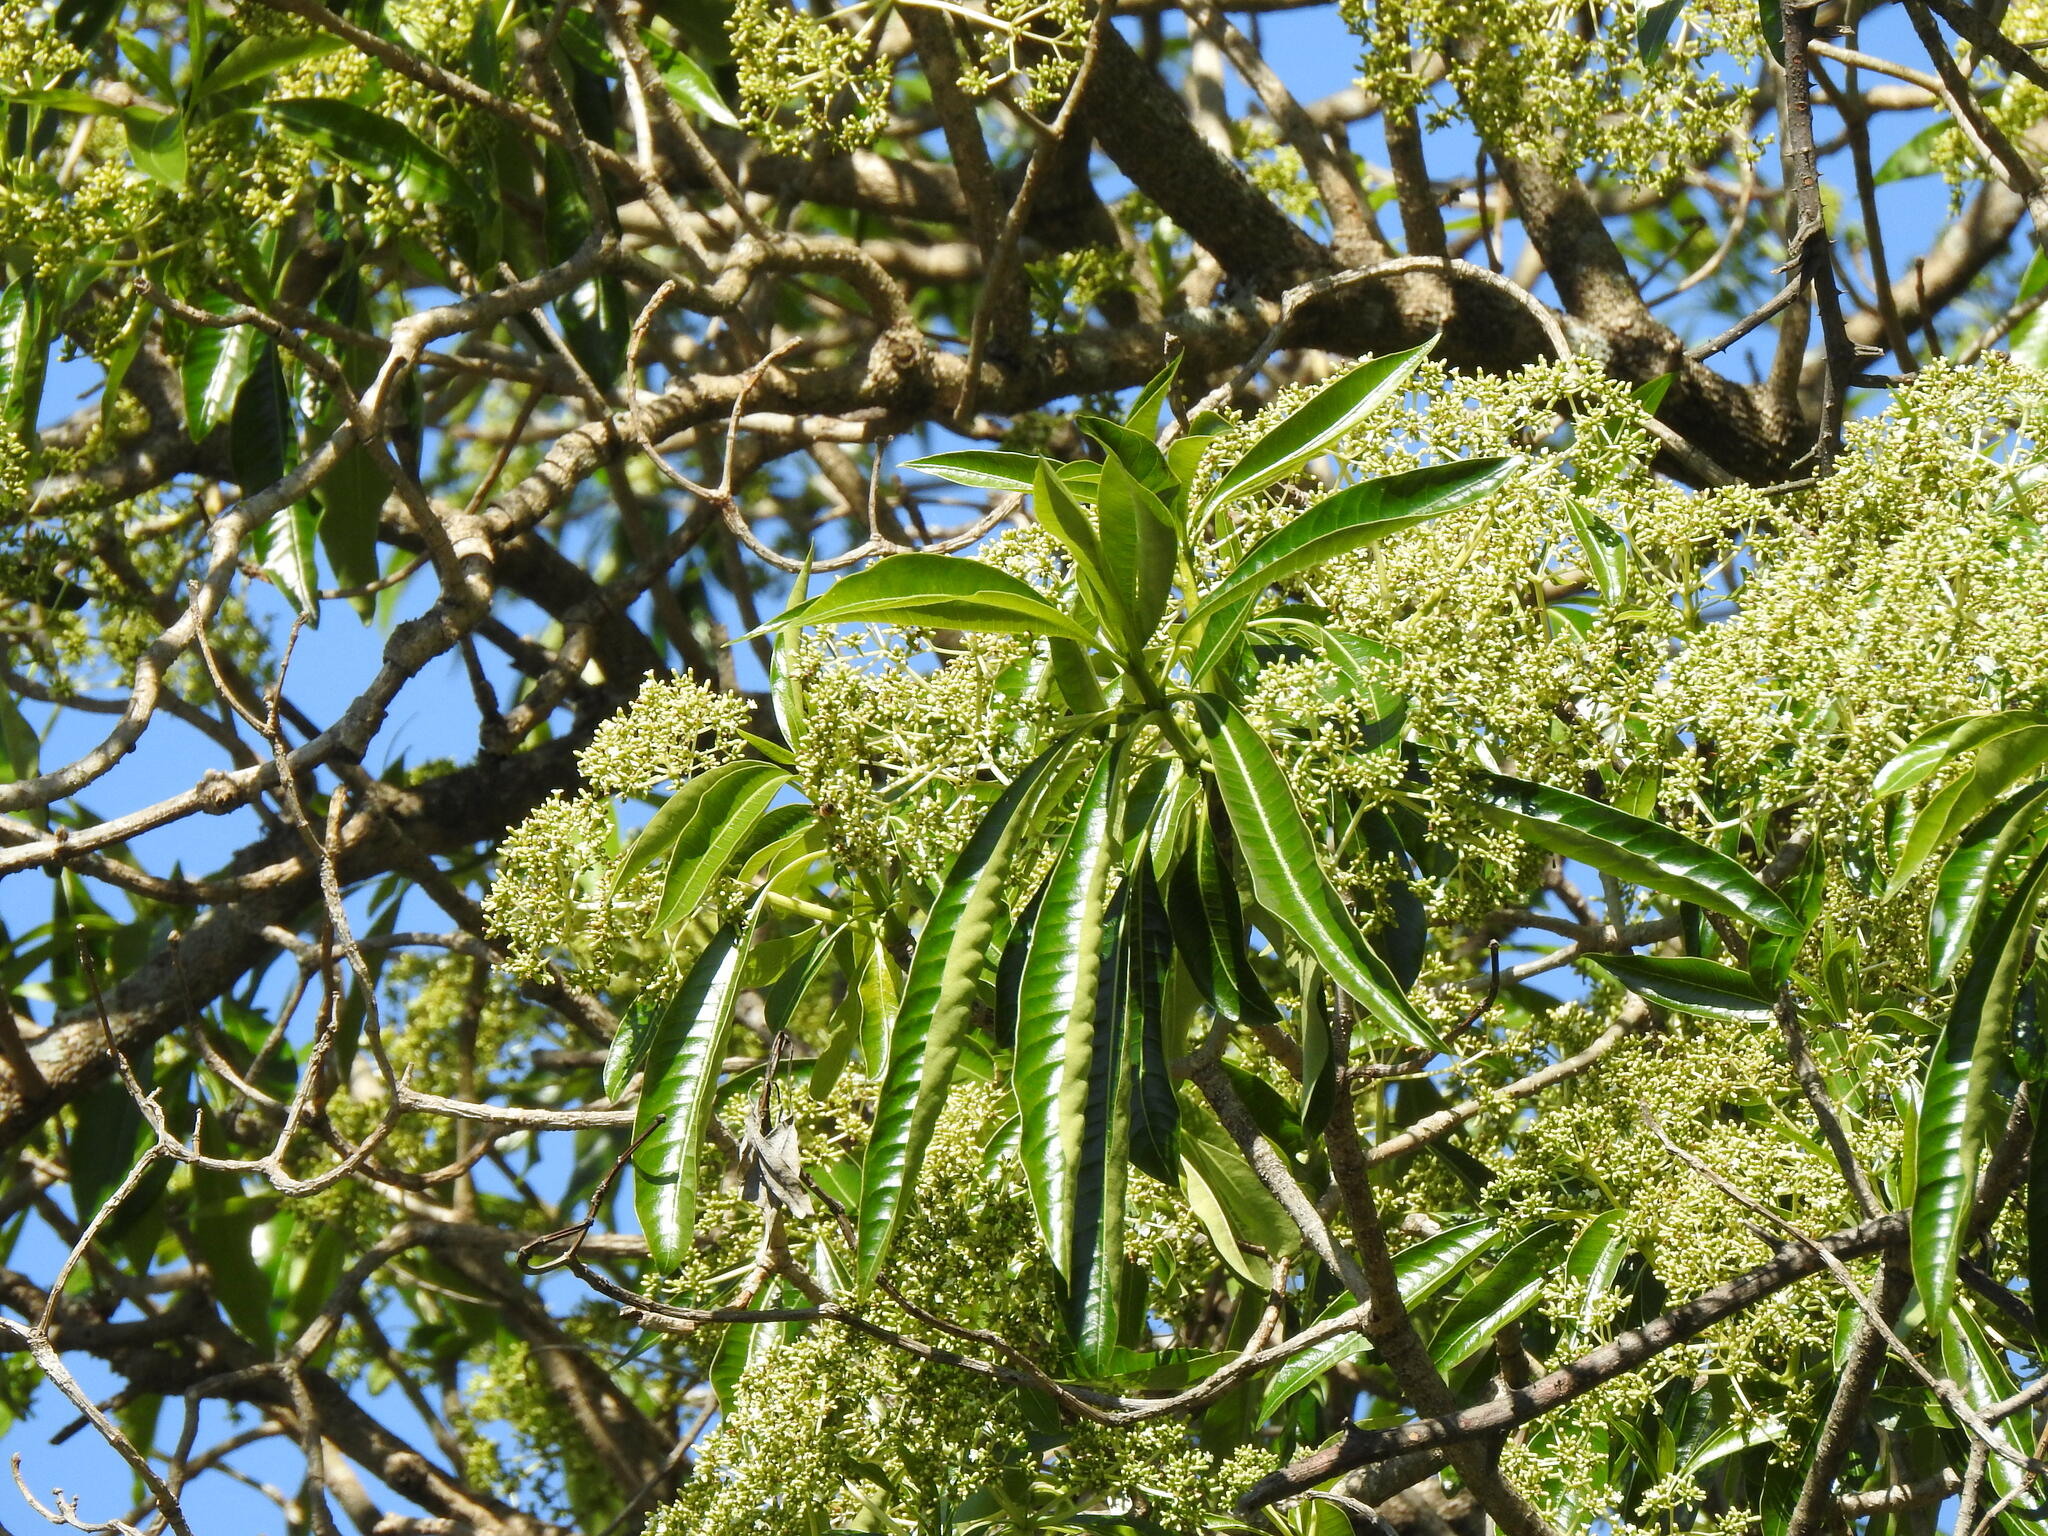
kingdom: Plantae
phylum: Tracheophyta
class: Magnoliopsida
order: Gentianales
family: Apocynaceae
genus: Rauvolfia
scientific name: Rauvolfia caffra
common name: Quininetree
